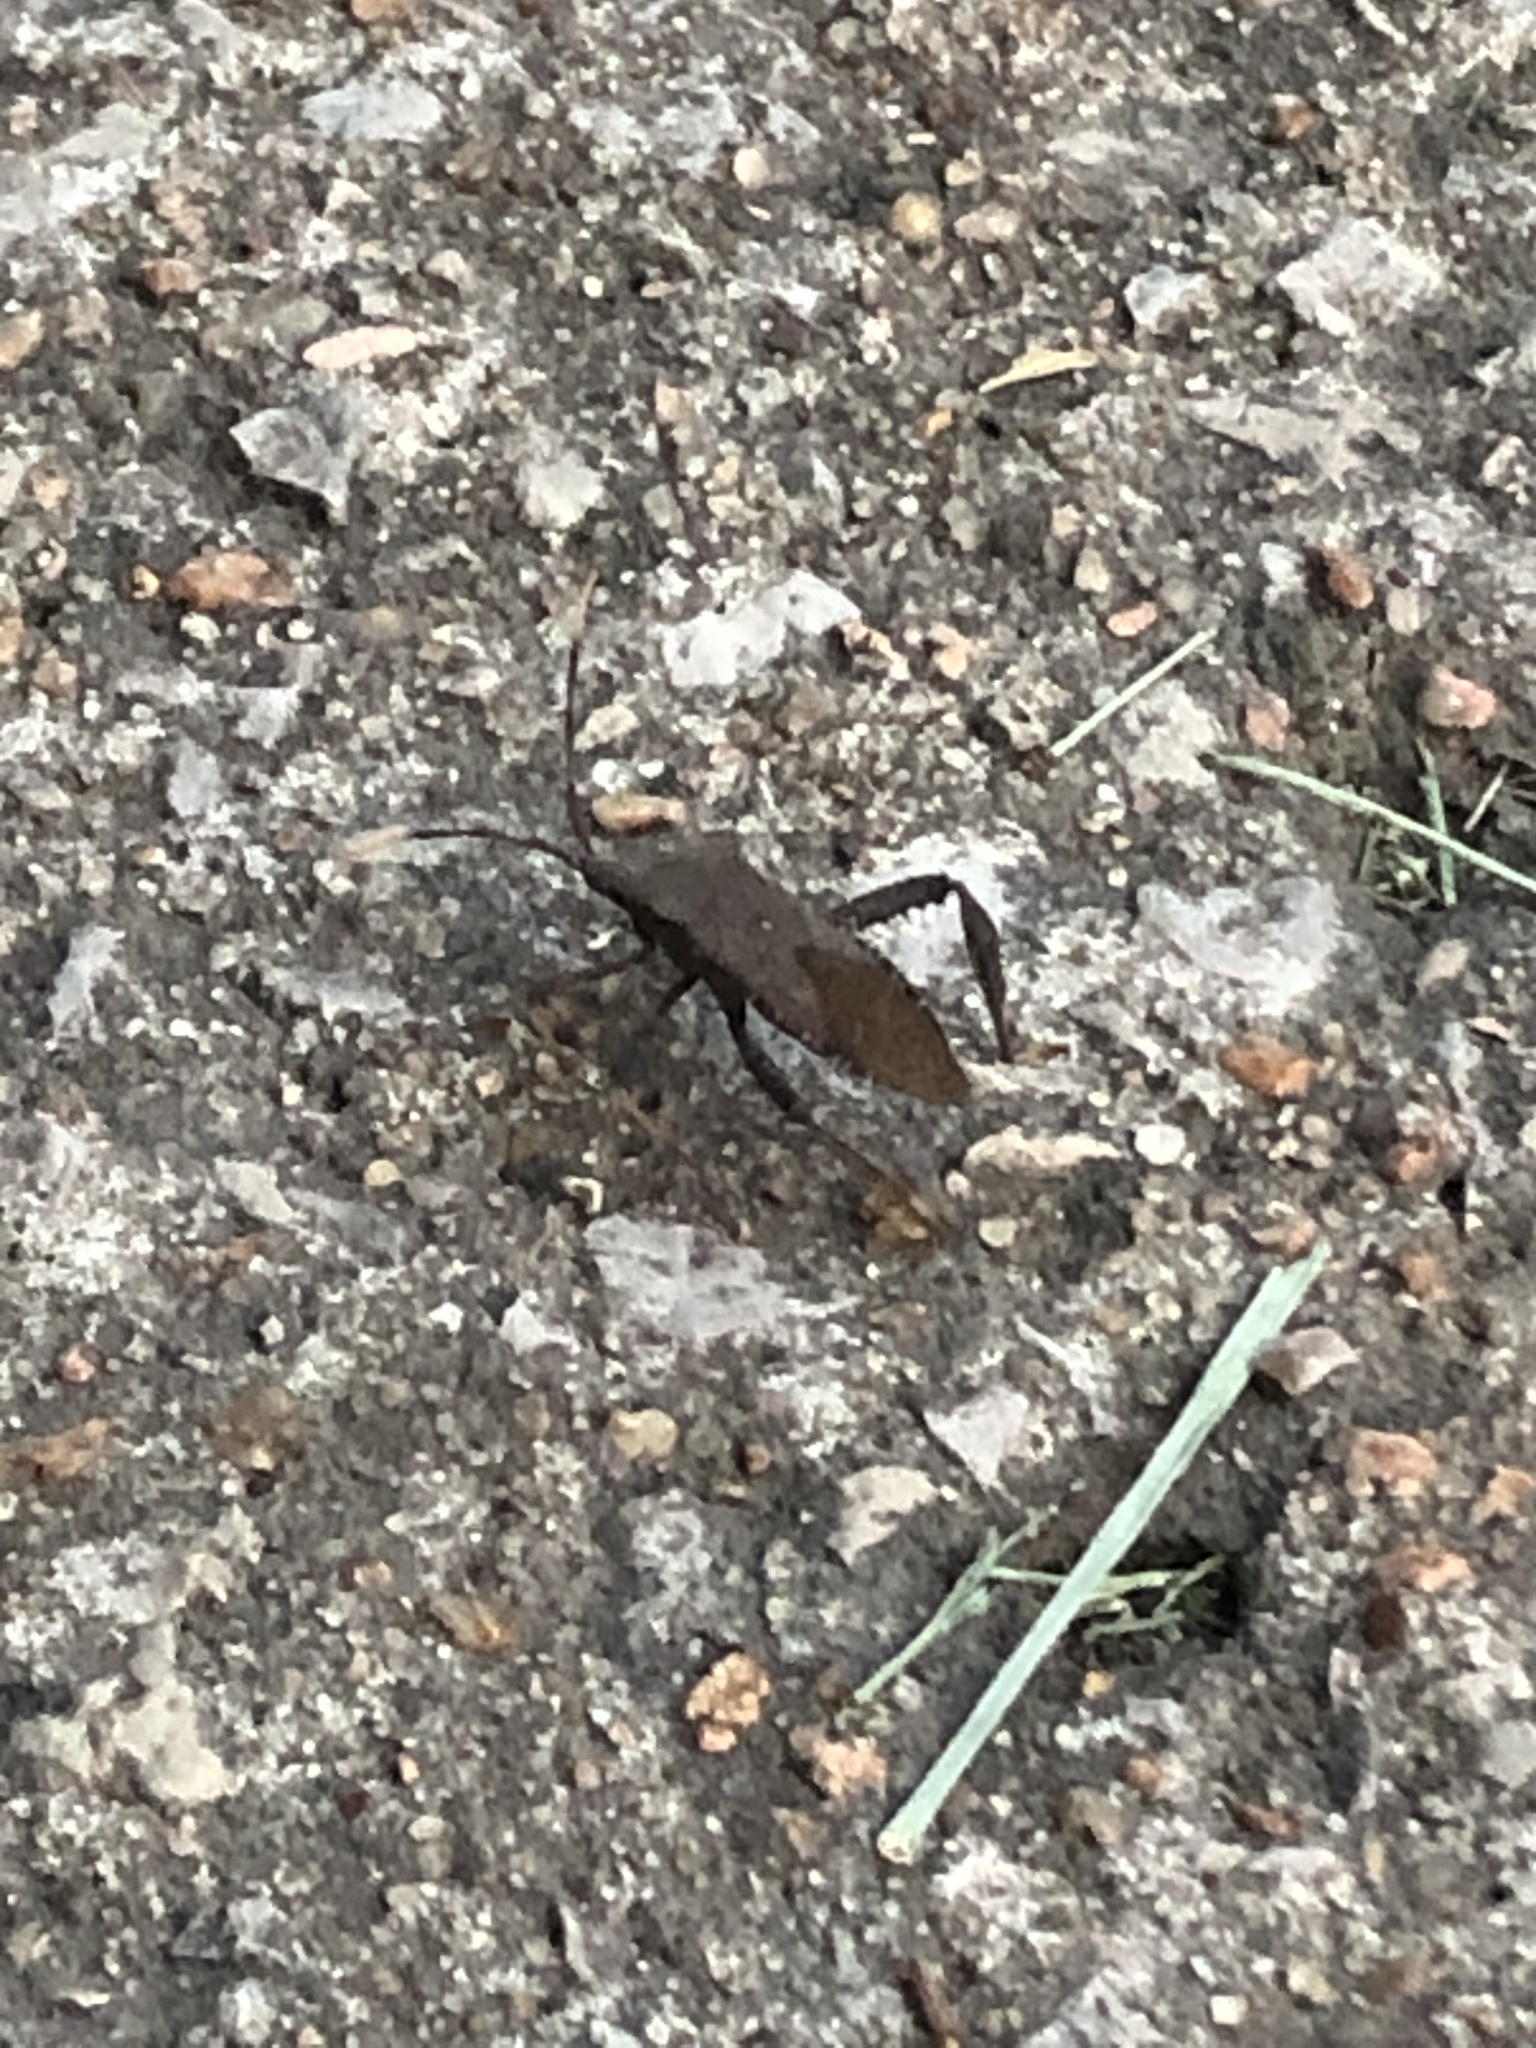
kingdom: Animalia
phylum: Arthropoda
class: Insecta
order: Hemiptera
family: Coreidae
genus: Acanthocephala
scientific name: Acanthocephala terminalis
